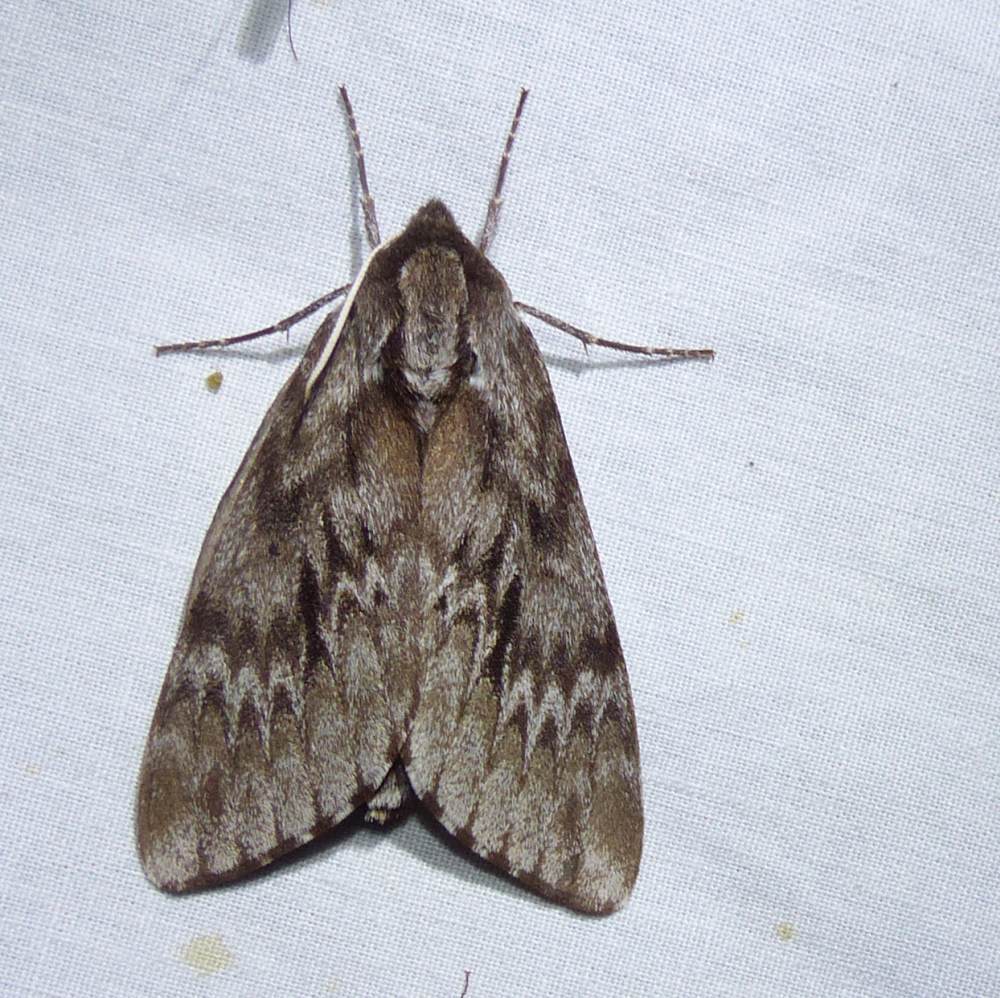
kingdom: Animalia
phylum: Arthropoda
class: Insecta
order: Lepidoptera
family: Sphingidae
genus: Lapara
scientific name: Lapara bombycoides
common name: Northern pine sphinx
